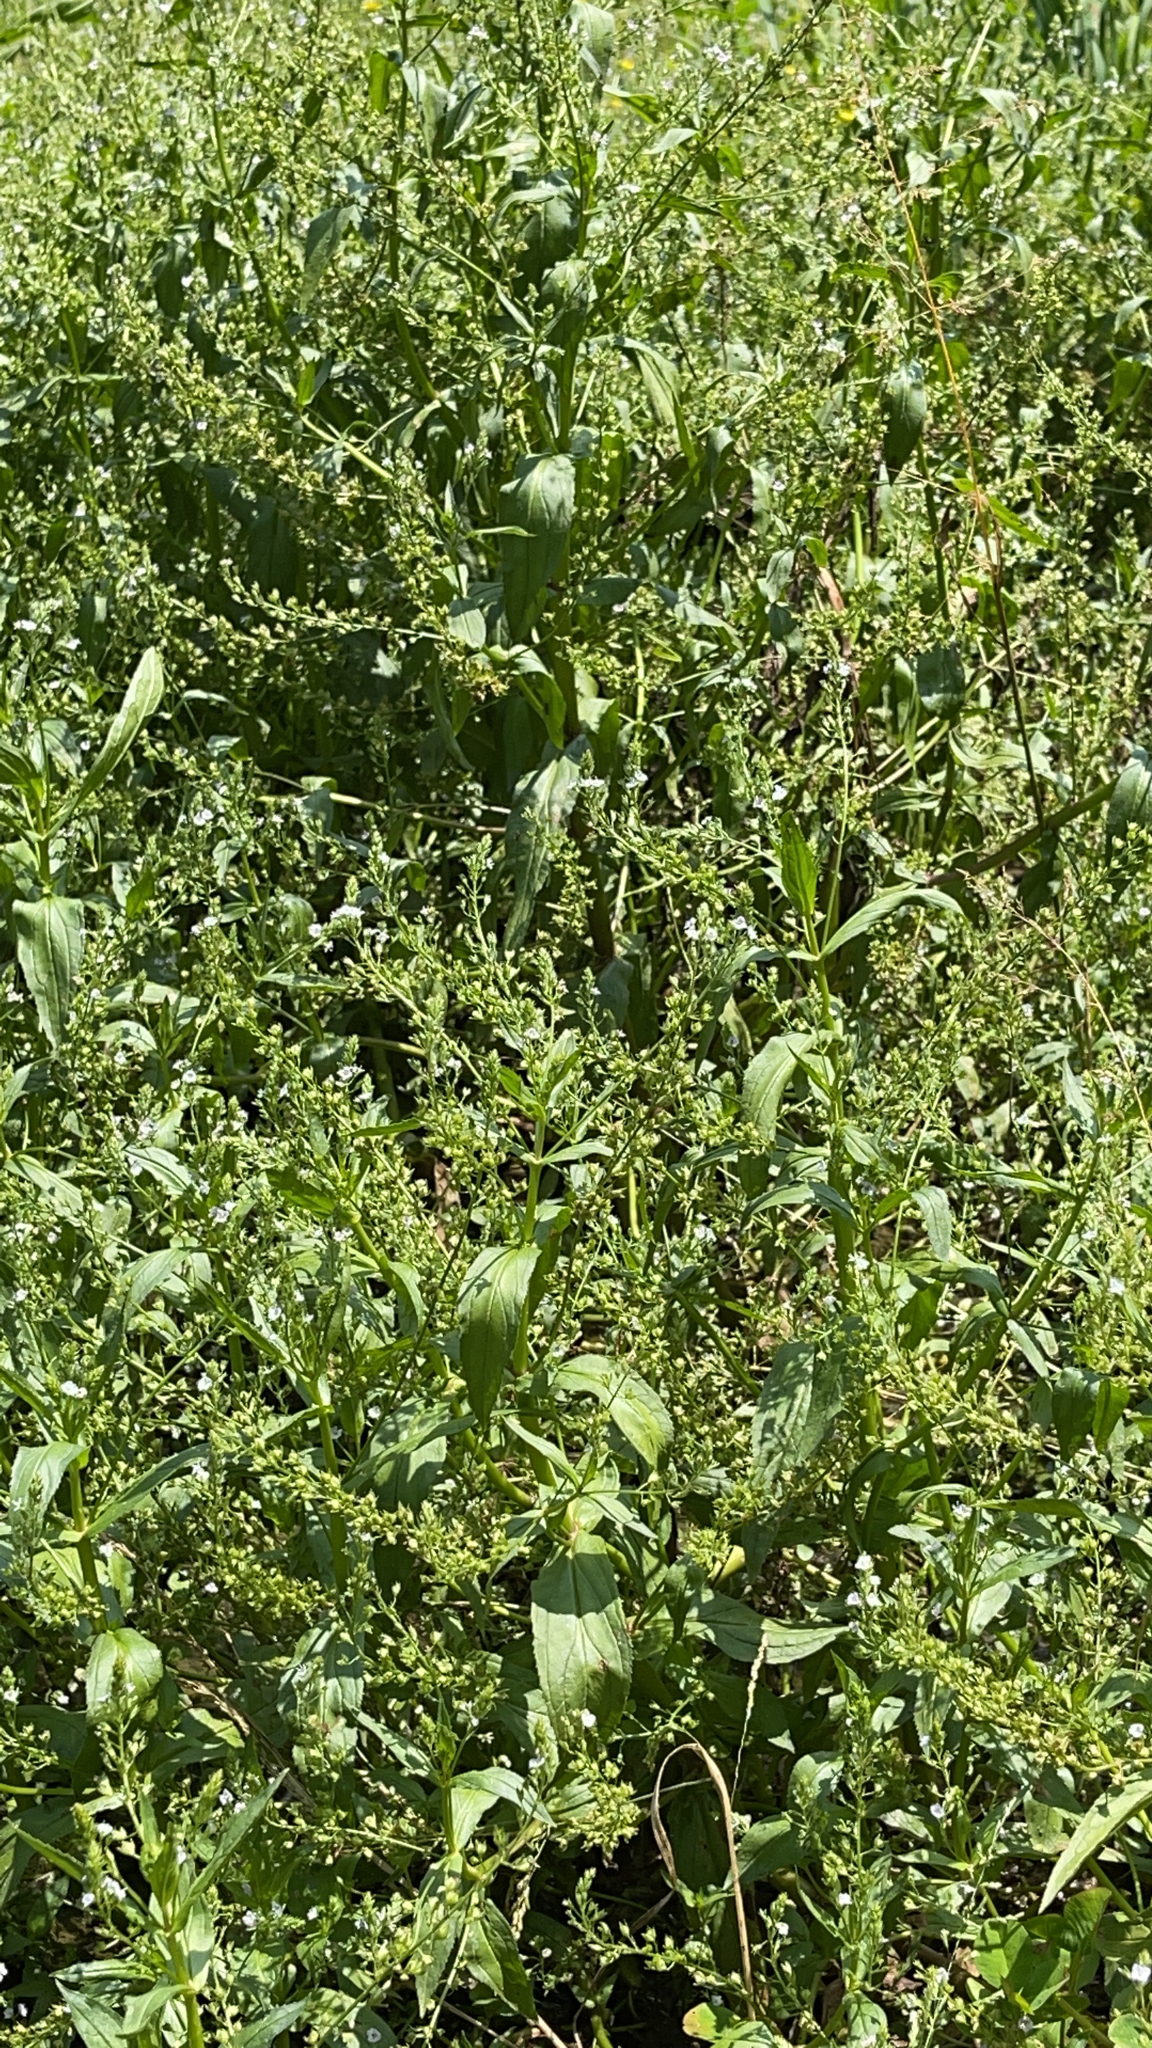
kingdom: Plantae
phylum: Tracheophyta
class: Magnoliopsida
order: Lamiales
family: Plantaginaceae
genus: Veronica
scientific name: Veronica anagallis-aquatica
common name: Water speedwell
